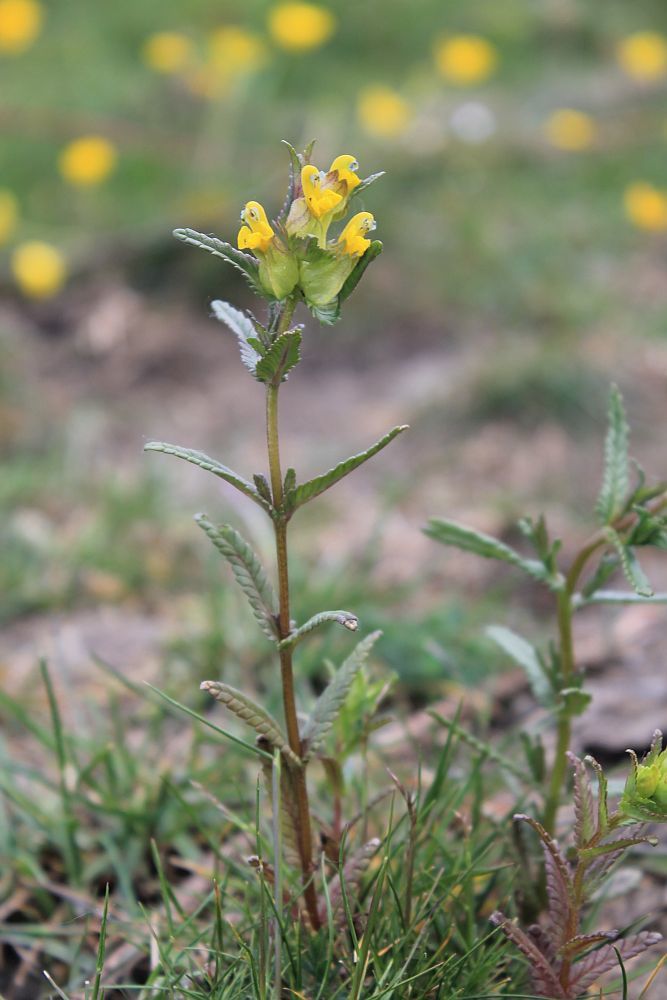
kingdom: Plantae
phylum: Tracheophyta
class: Magnoliopsida
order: Lamiales
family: Orobanchaceae
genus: Rhinanthus
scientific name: Rhinanthus minor
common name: Yellow-rattle
